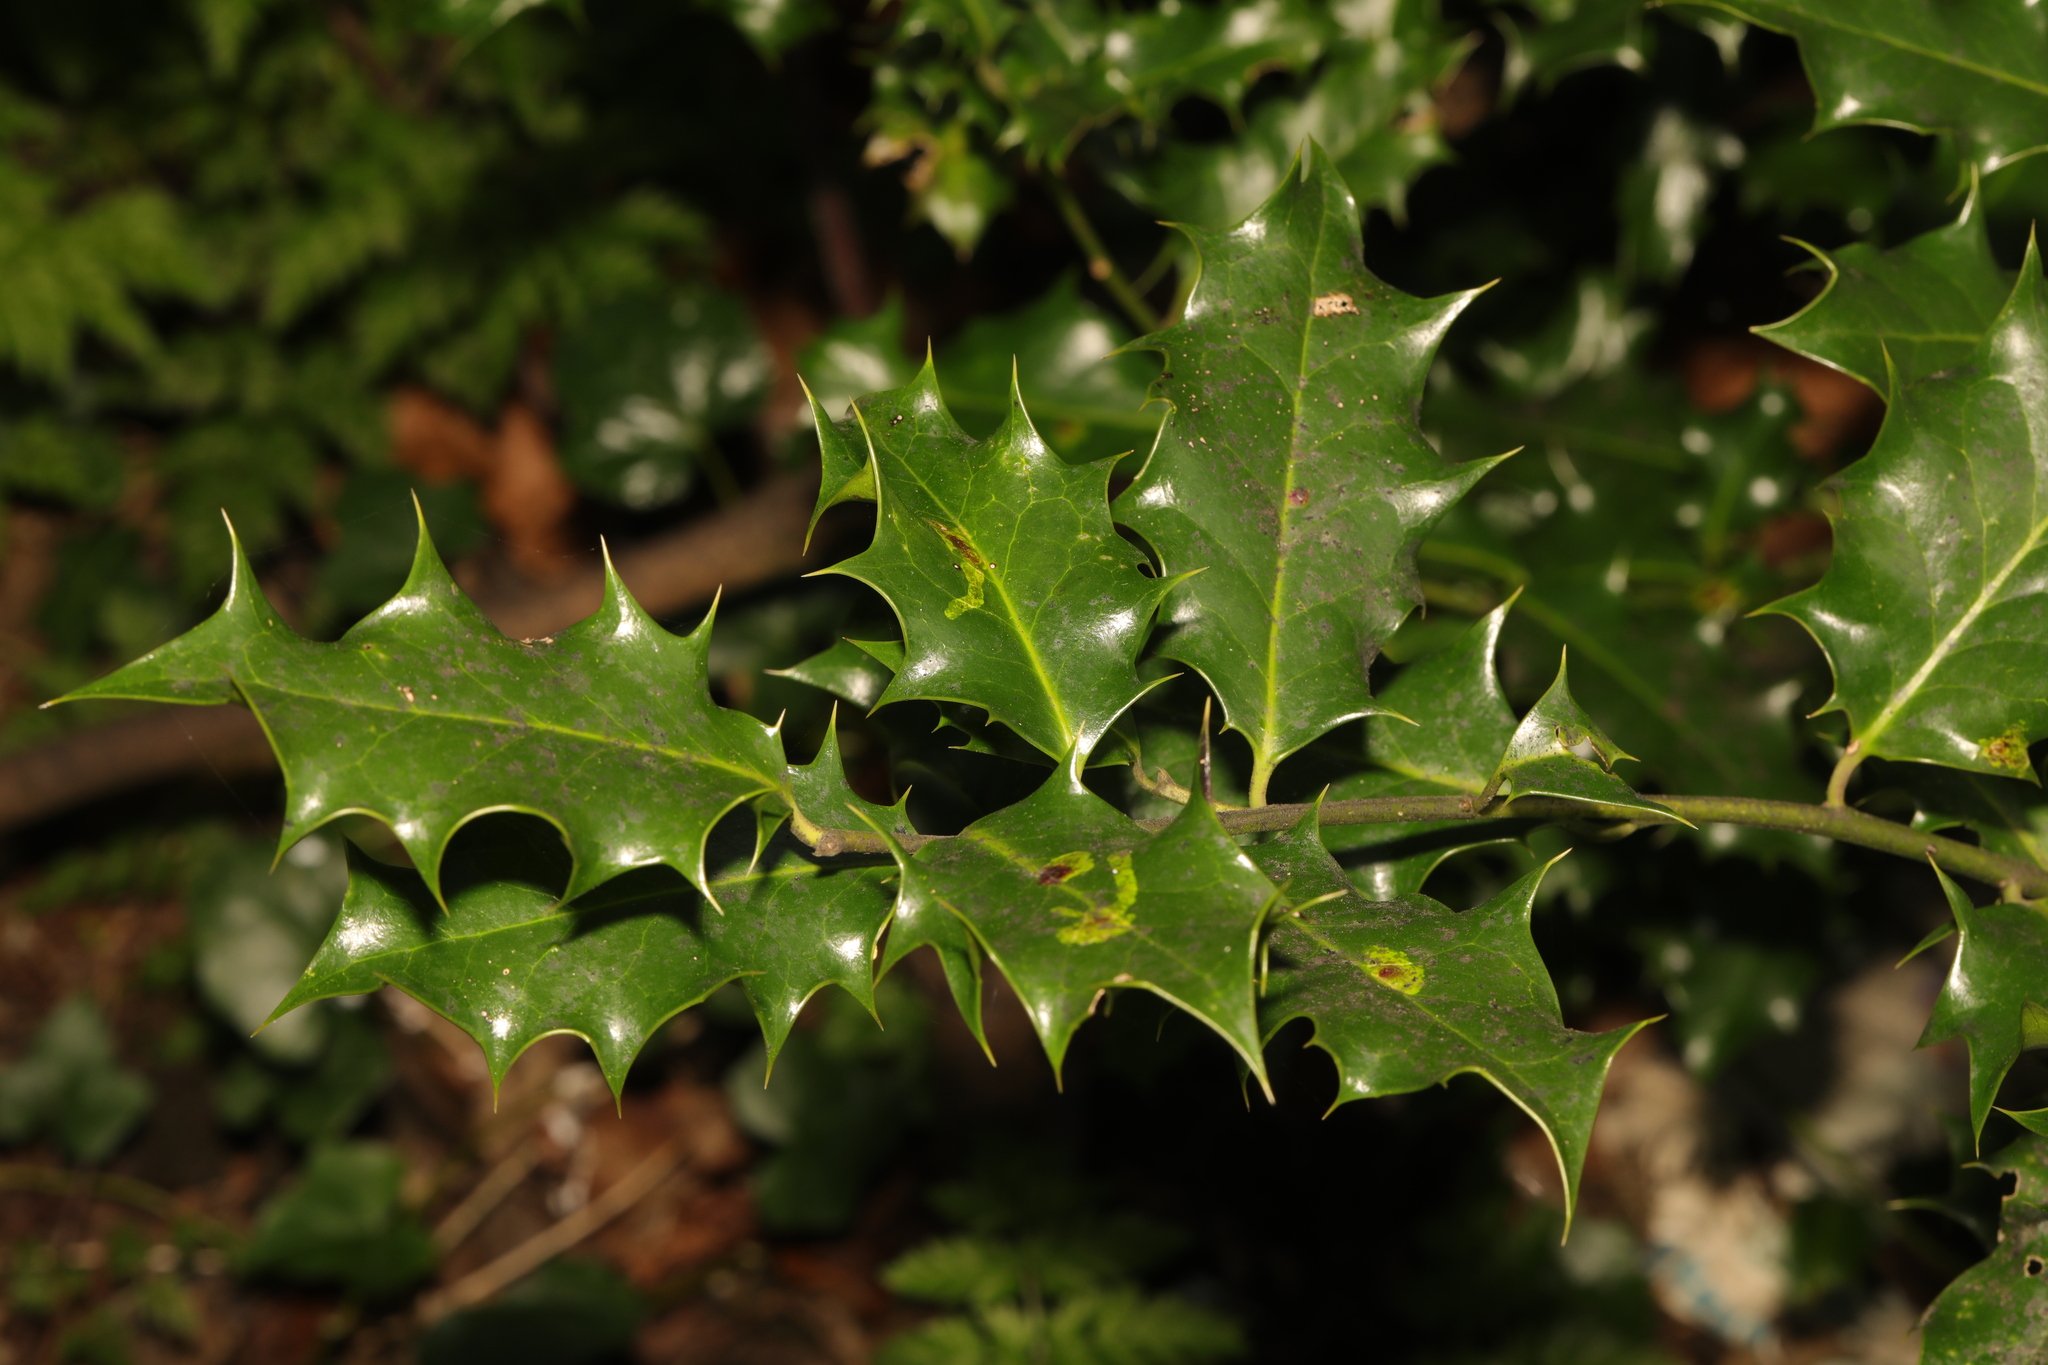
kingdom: Plantae
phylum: Tracheophyta
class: Magnoliopsida
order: Aquifoliales
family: Aquifoliaceae
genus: Ilex
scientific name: Ilex aquifolium
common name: English holly
